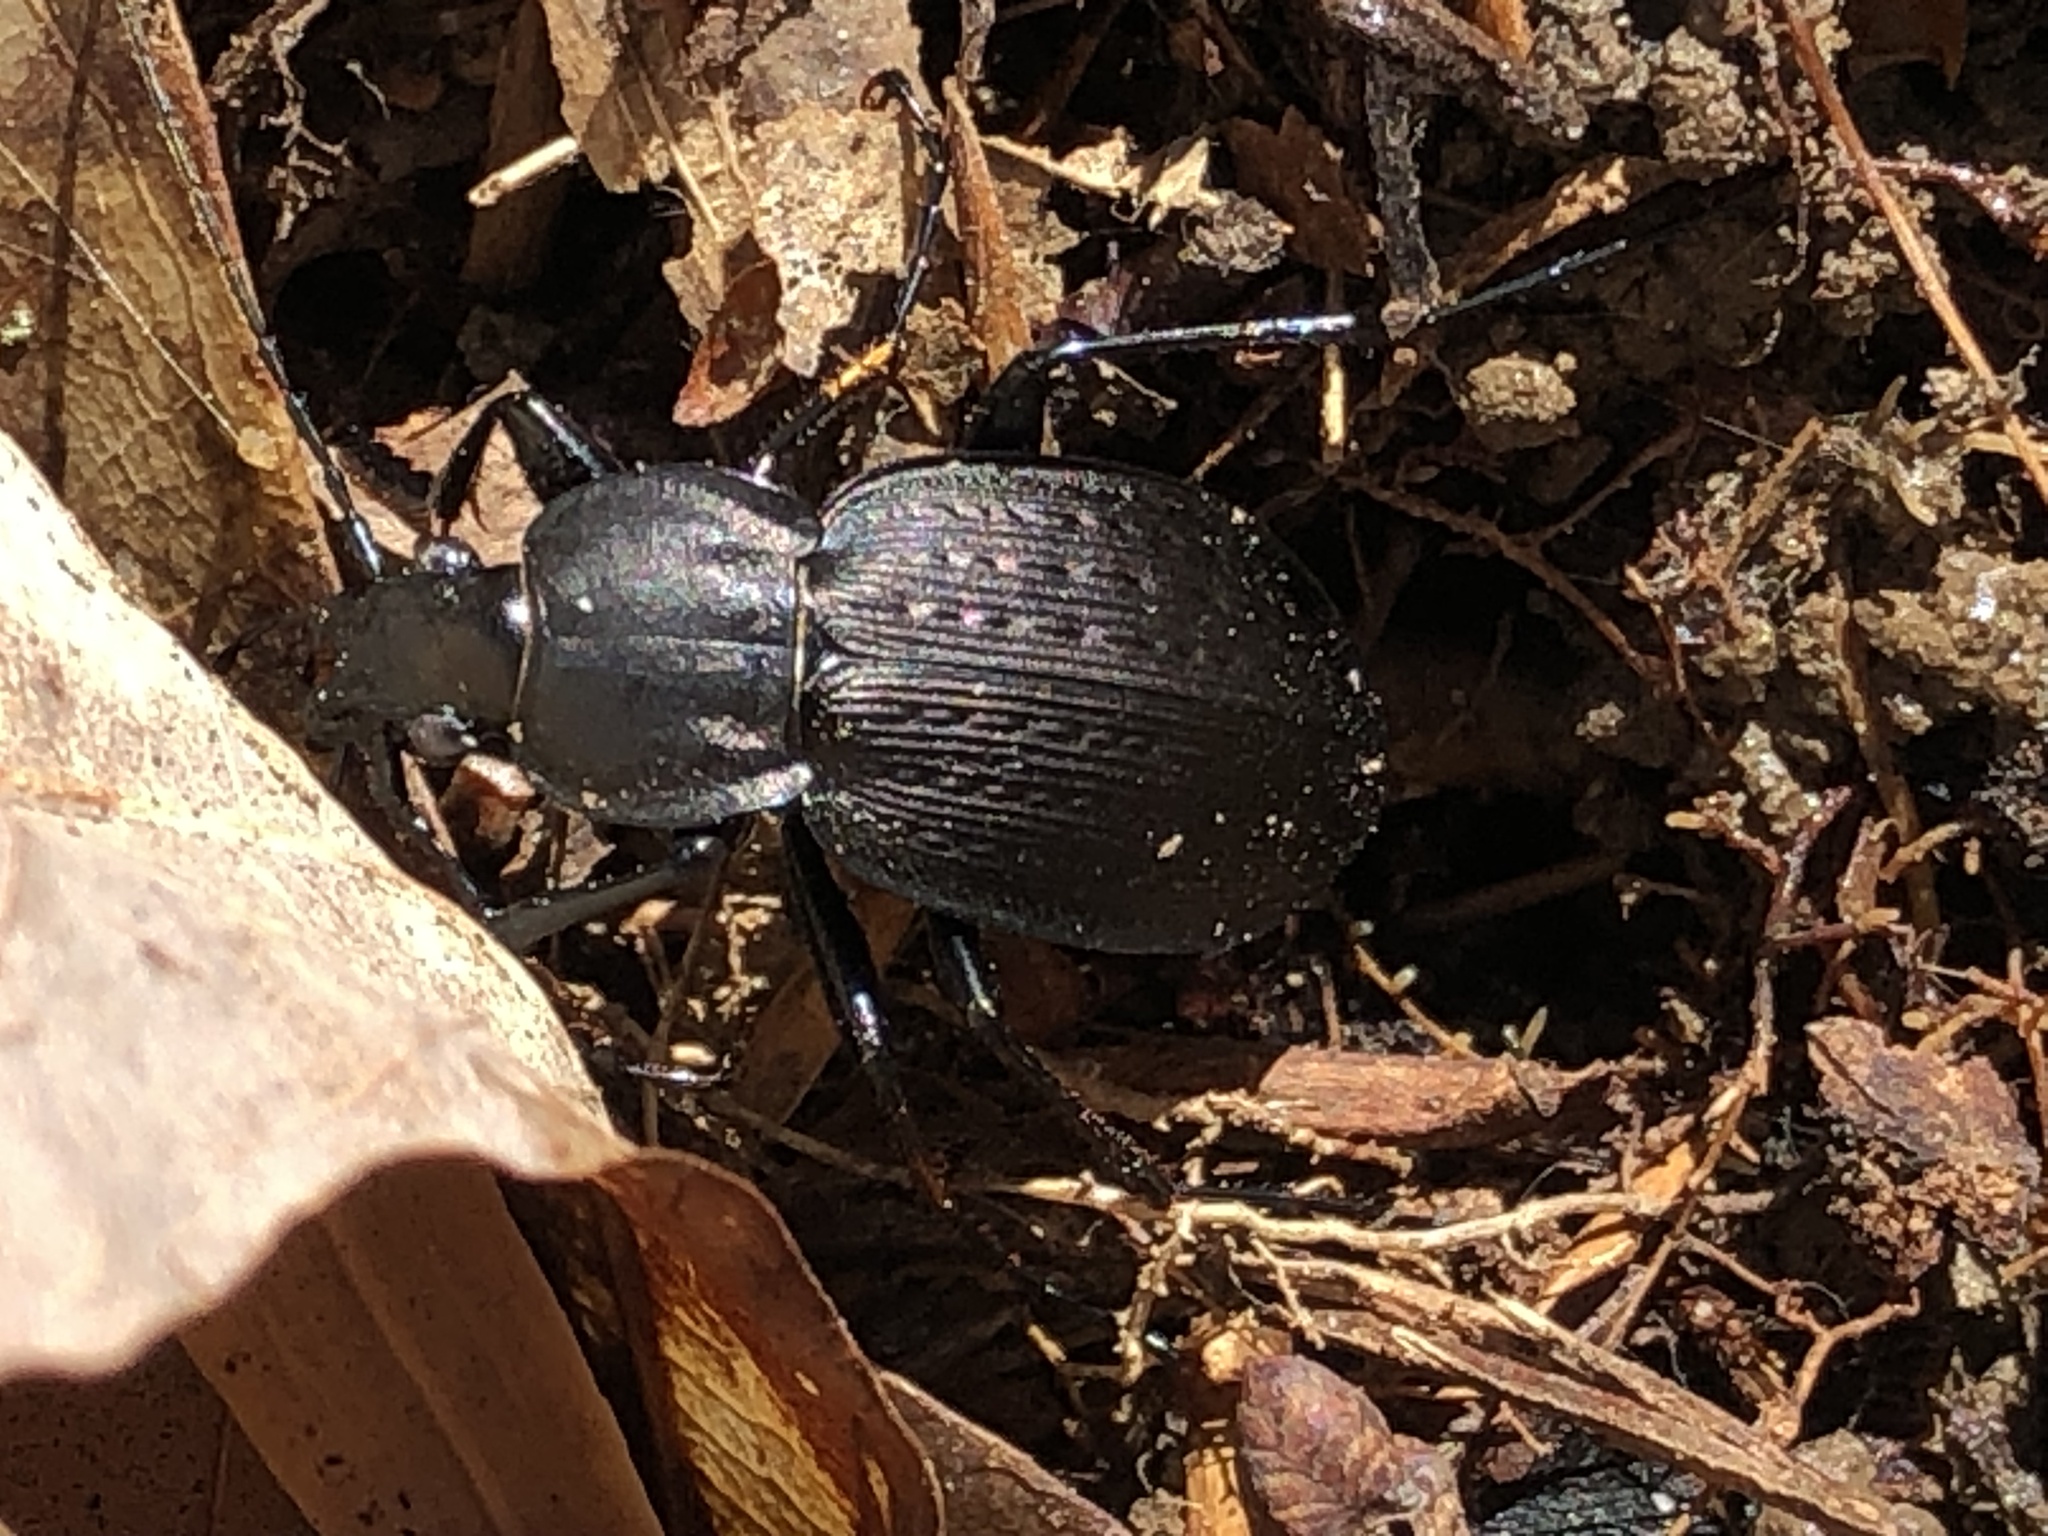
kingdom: Animalia
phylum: Arthropoda
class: Insecta
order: Coleoptera
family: Carabidae
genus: Carabus
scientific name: Carabus vinctus
